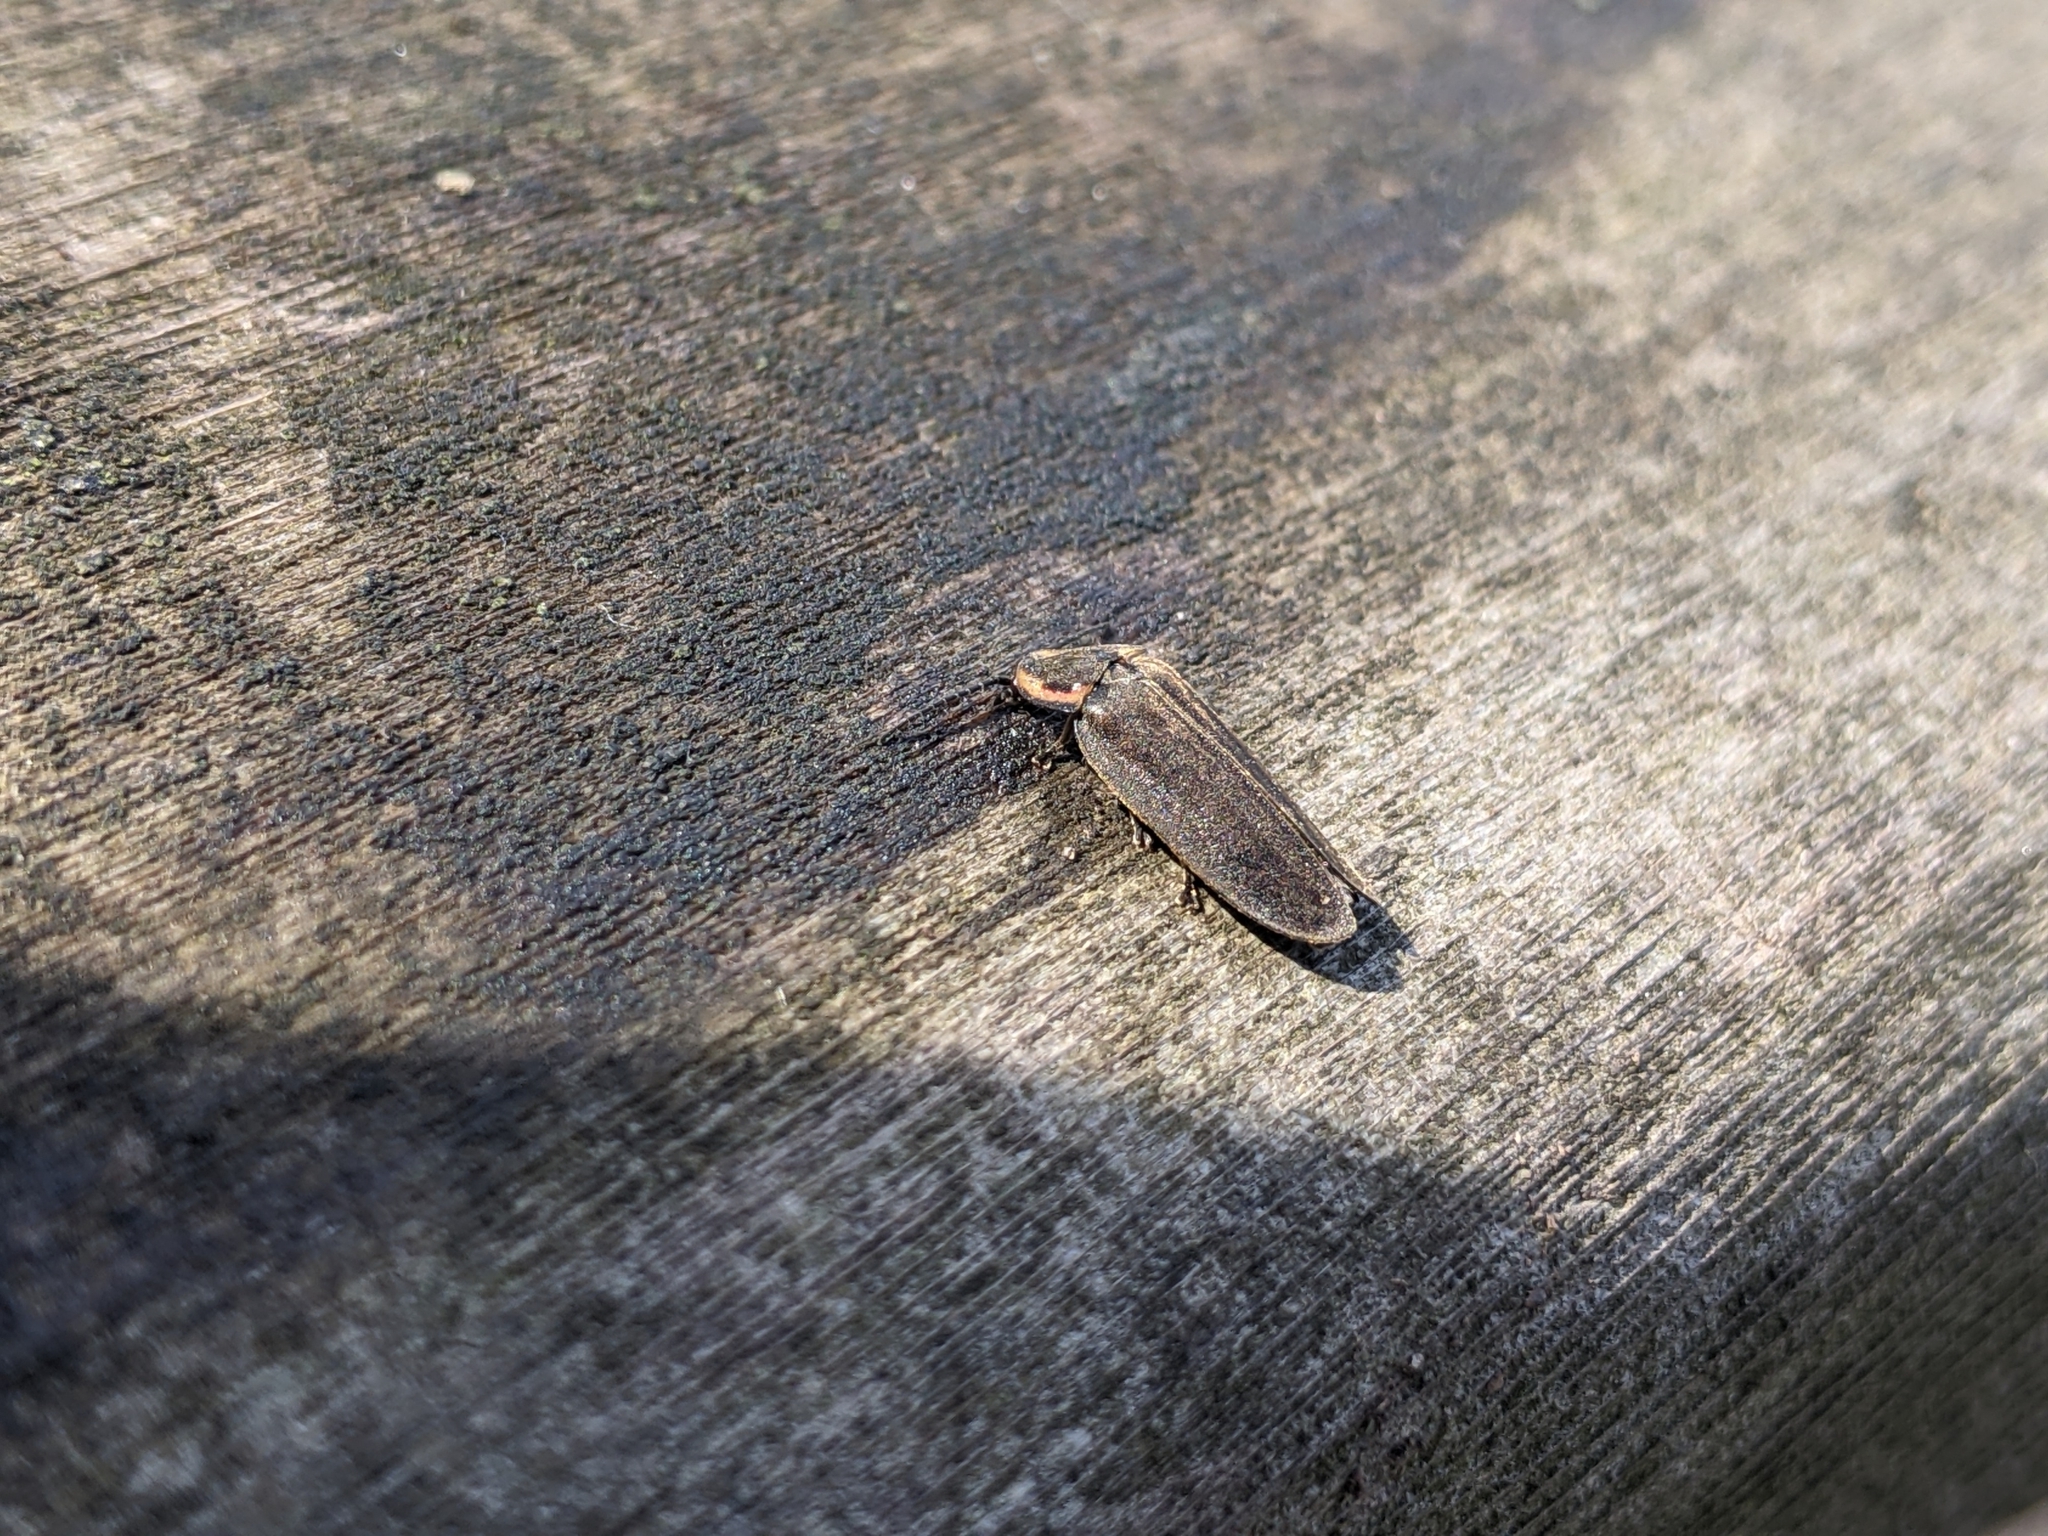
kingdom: Animalia
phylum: Arthropoda
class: Insecta
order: Coleoptera
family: Lampyridae
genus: Photinus
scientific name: Photinus corrusca
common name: Winter firefly
